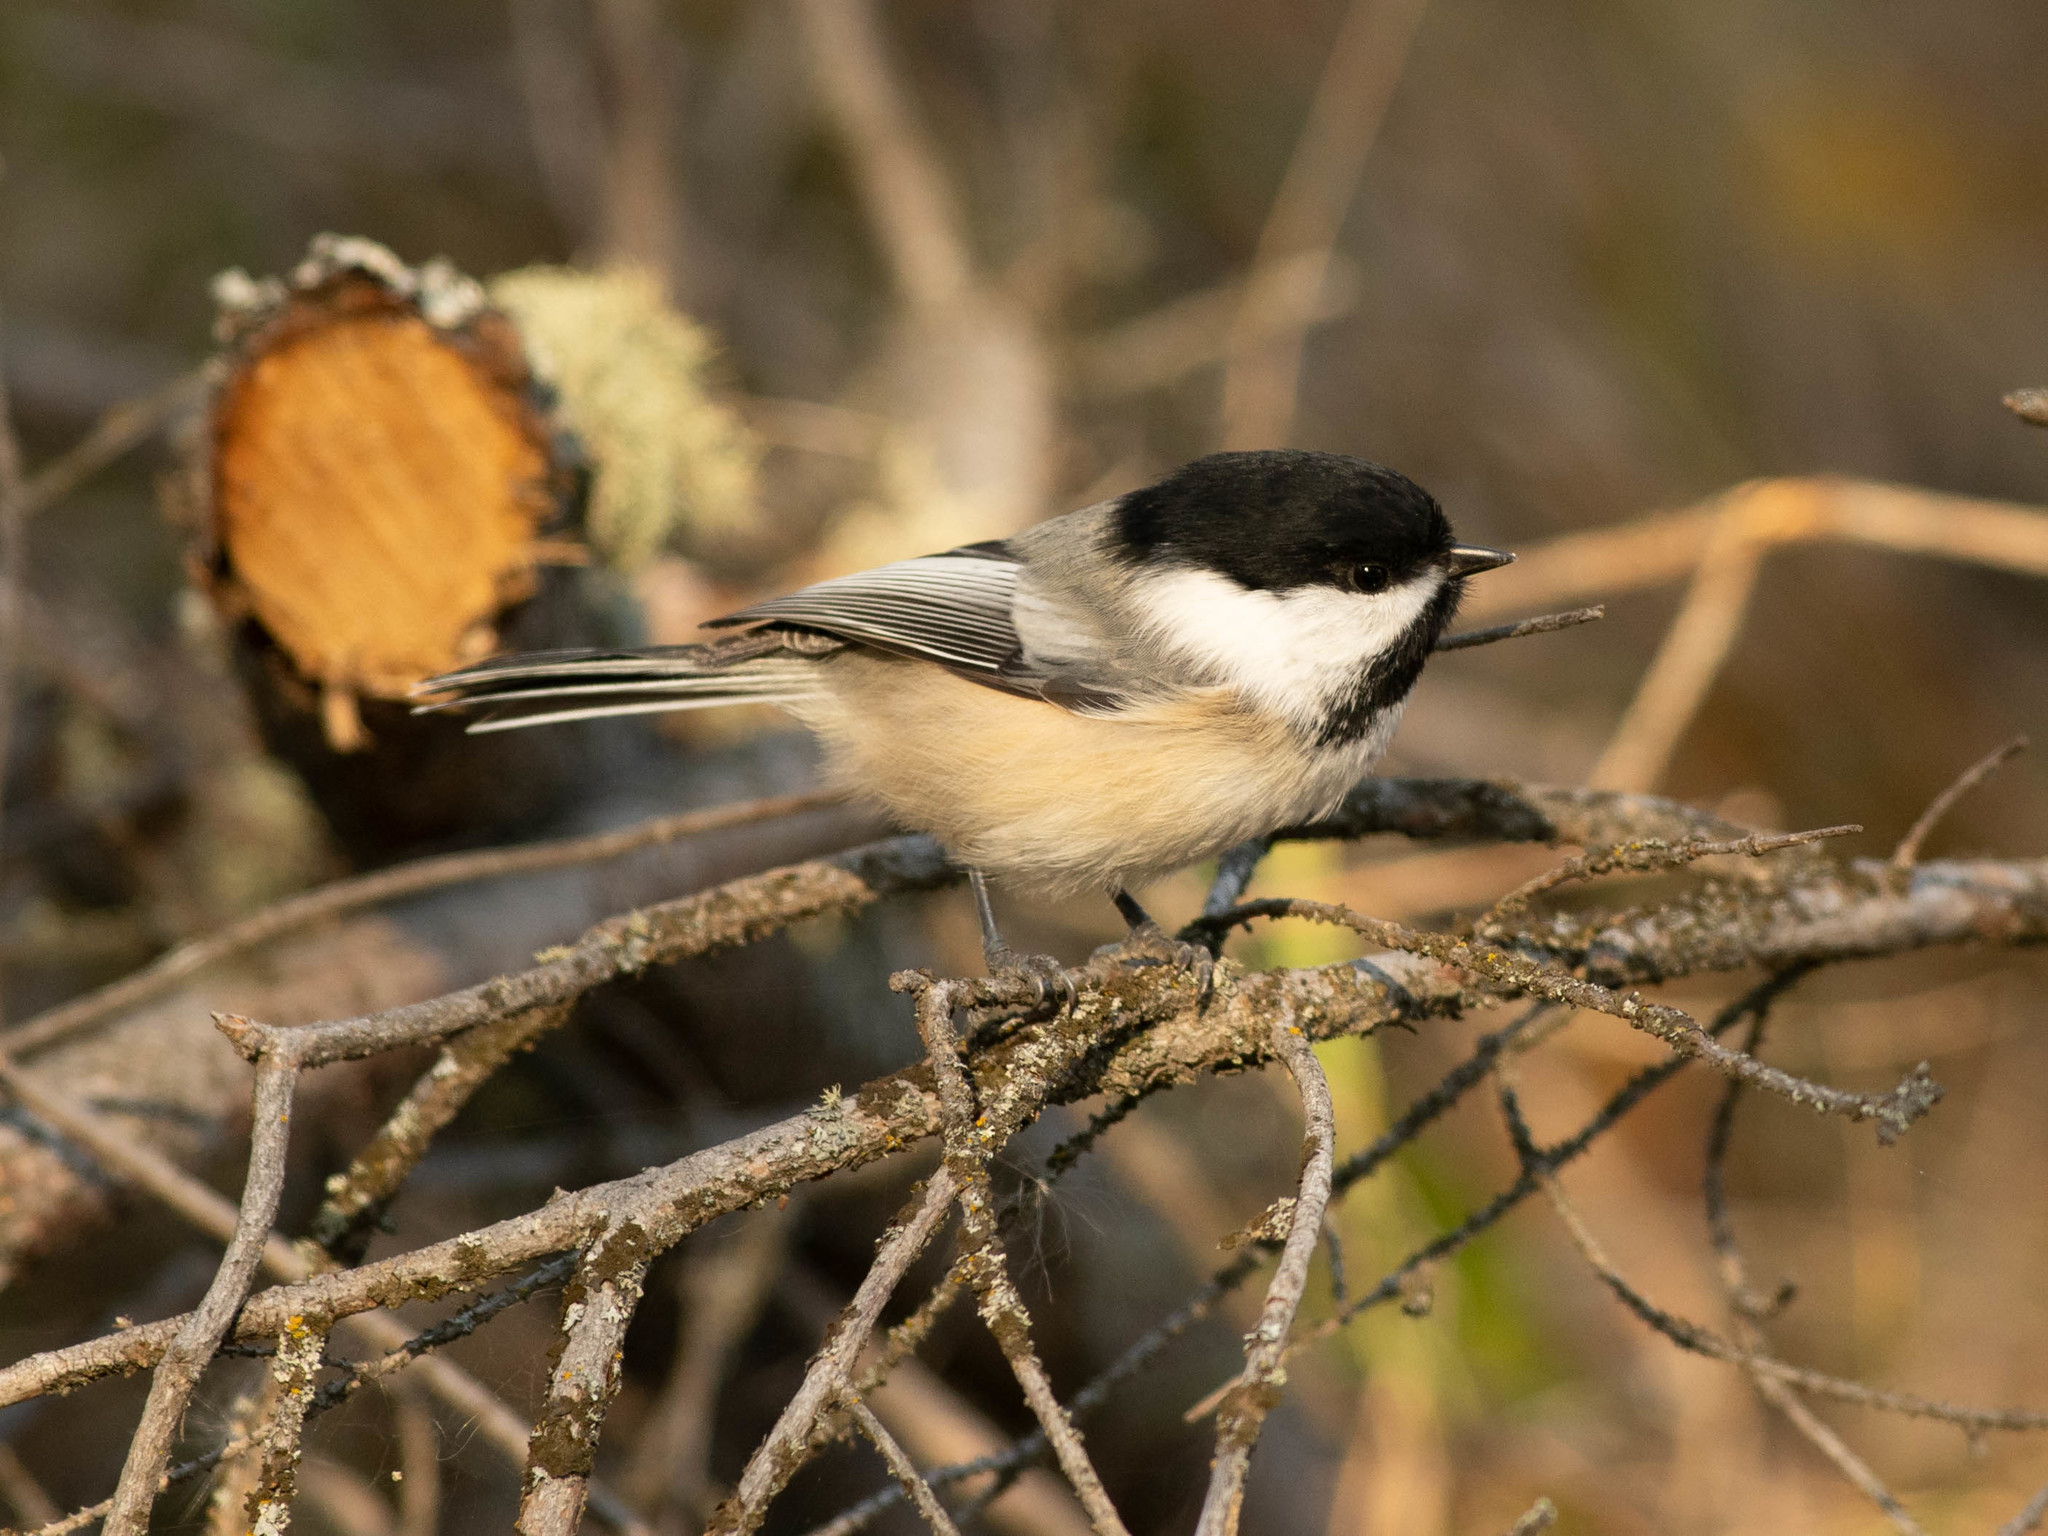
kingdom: Animalia
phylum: Chordata
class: Aves
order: Passeriformes
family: Paridae
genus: Poecile
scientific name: Poecile atricapillus
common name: Black-capped chickadee
